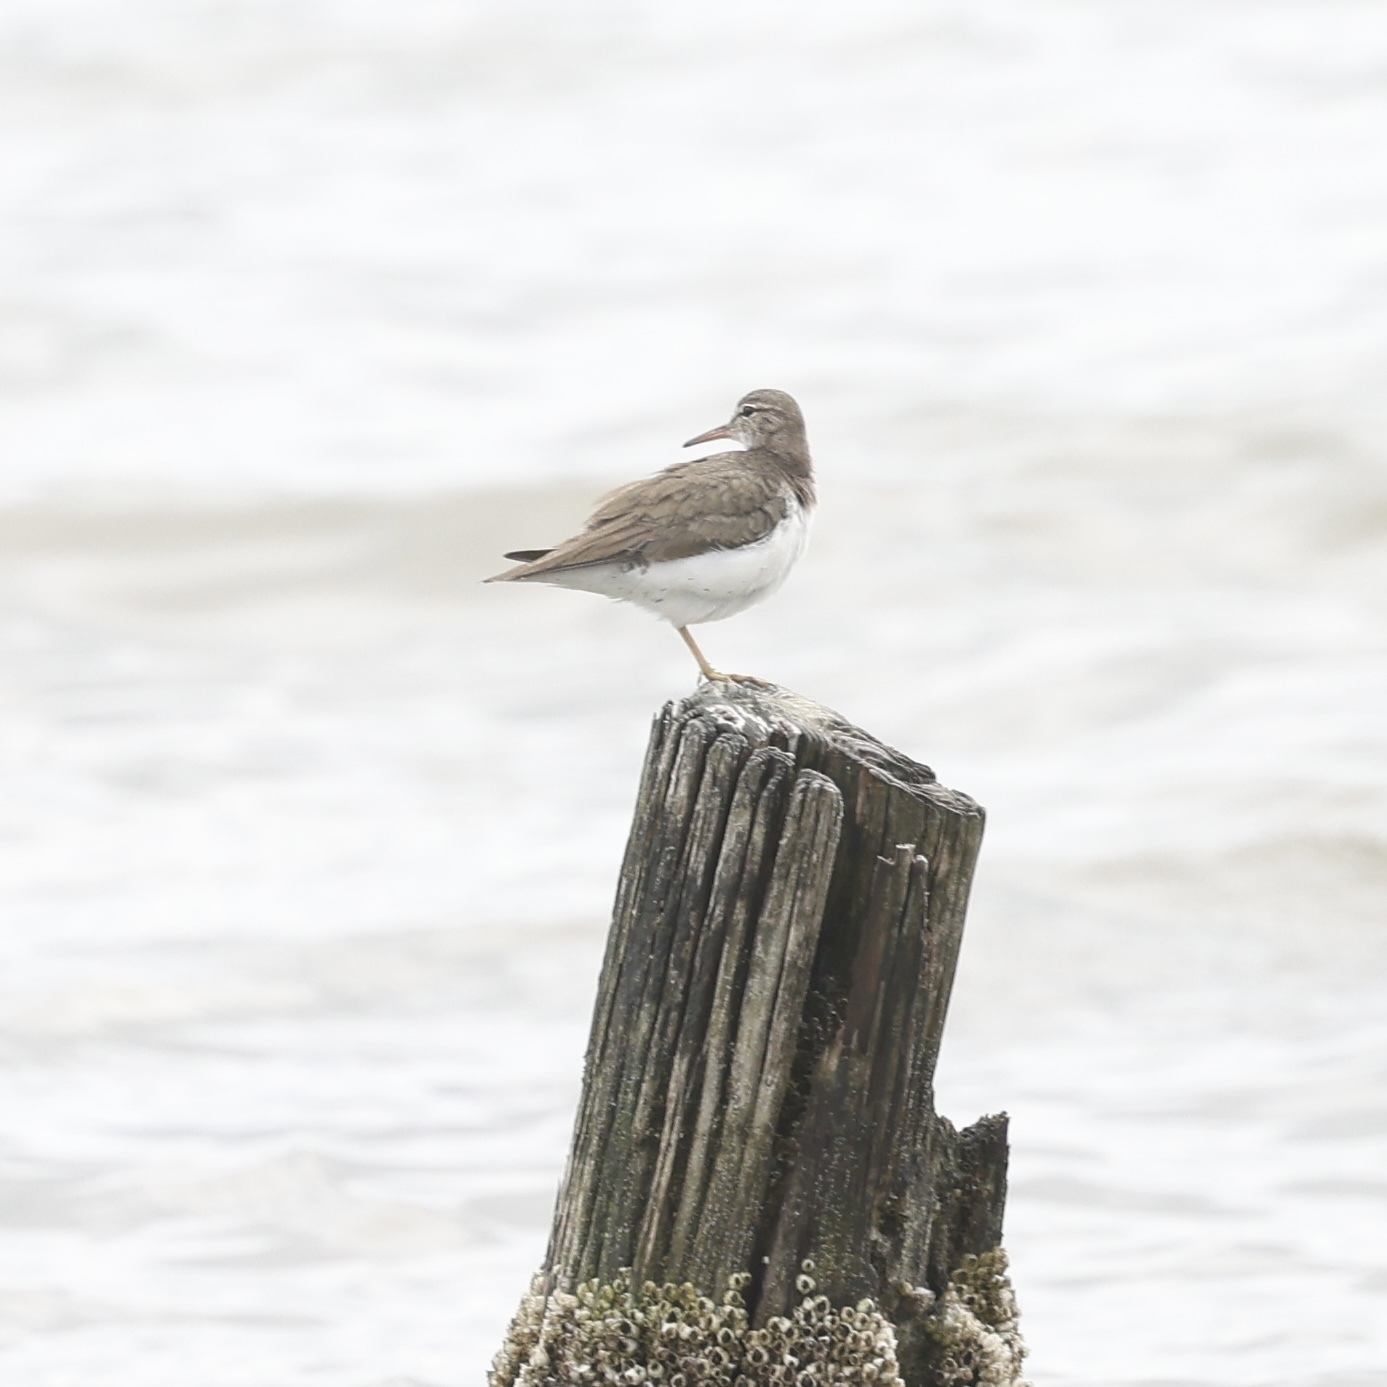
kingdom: Animalia
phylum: Chordata
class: Aves
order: Charadriiformes
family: Scolopacidae
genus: Actitis
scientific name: Actitis macularius
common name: Spotted sandpiper
